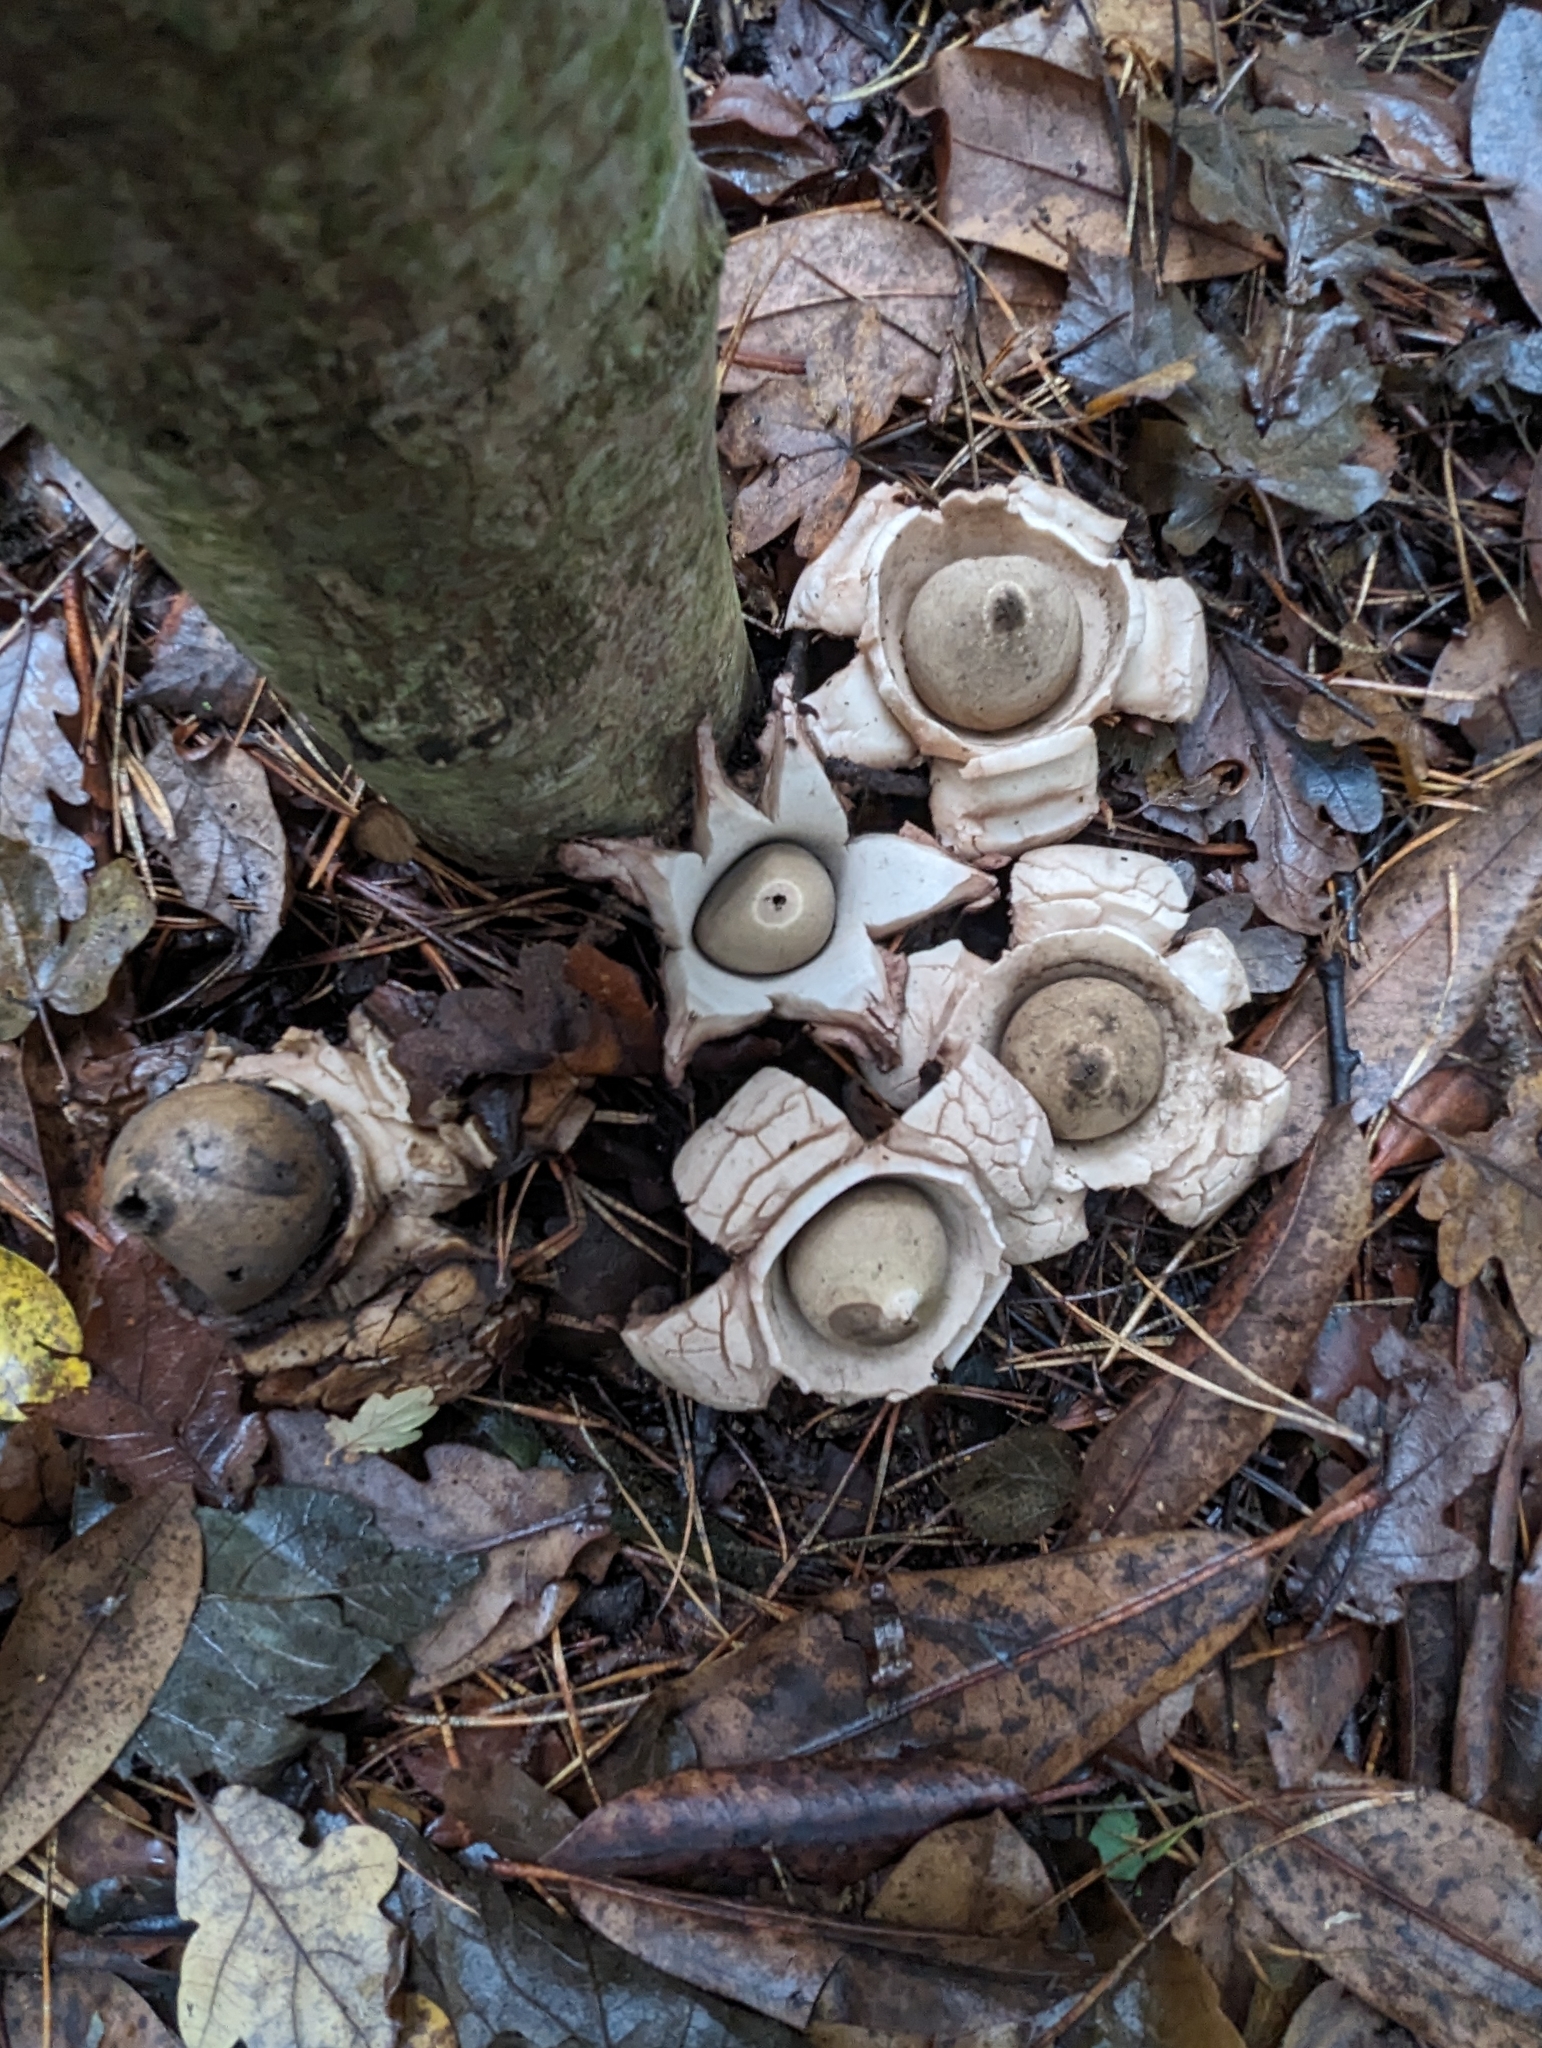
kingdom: Fungi
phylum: Basidiomycota
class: Agaricomycetes
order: Geastrales
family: Geastraceae
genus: Geastrum
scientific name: Geastrum michelianum
